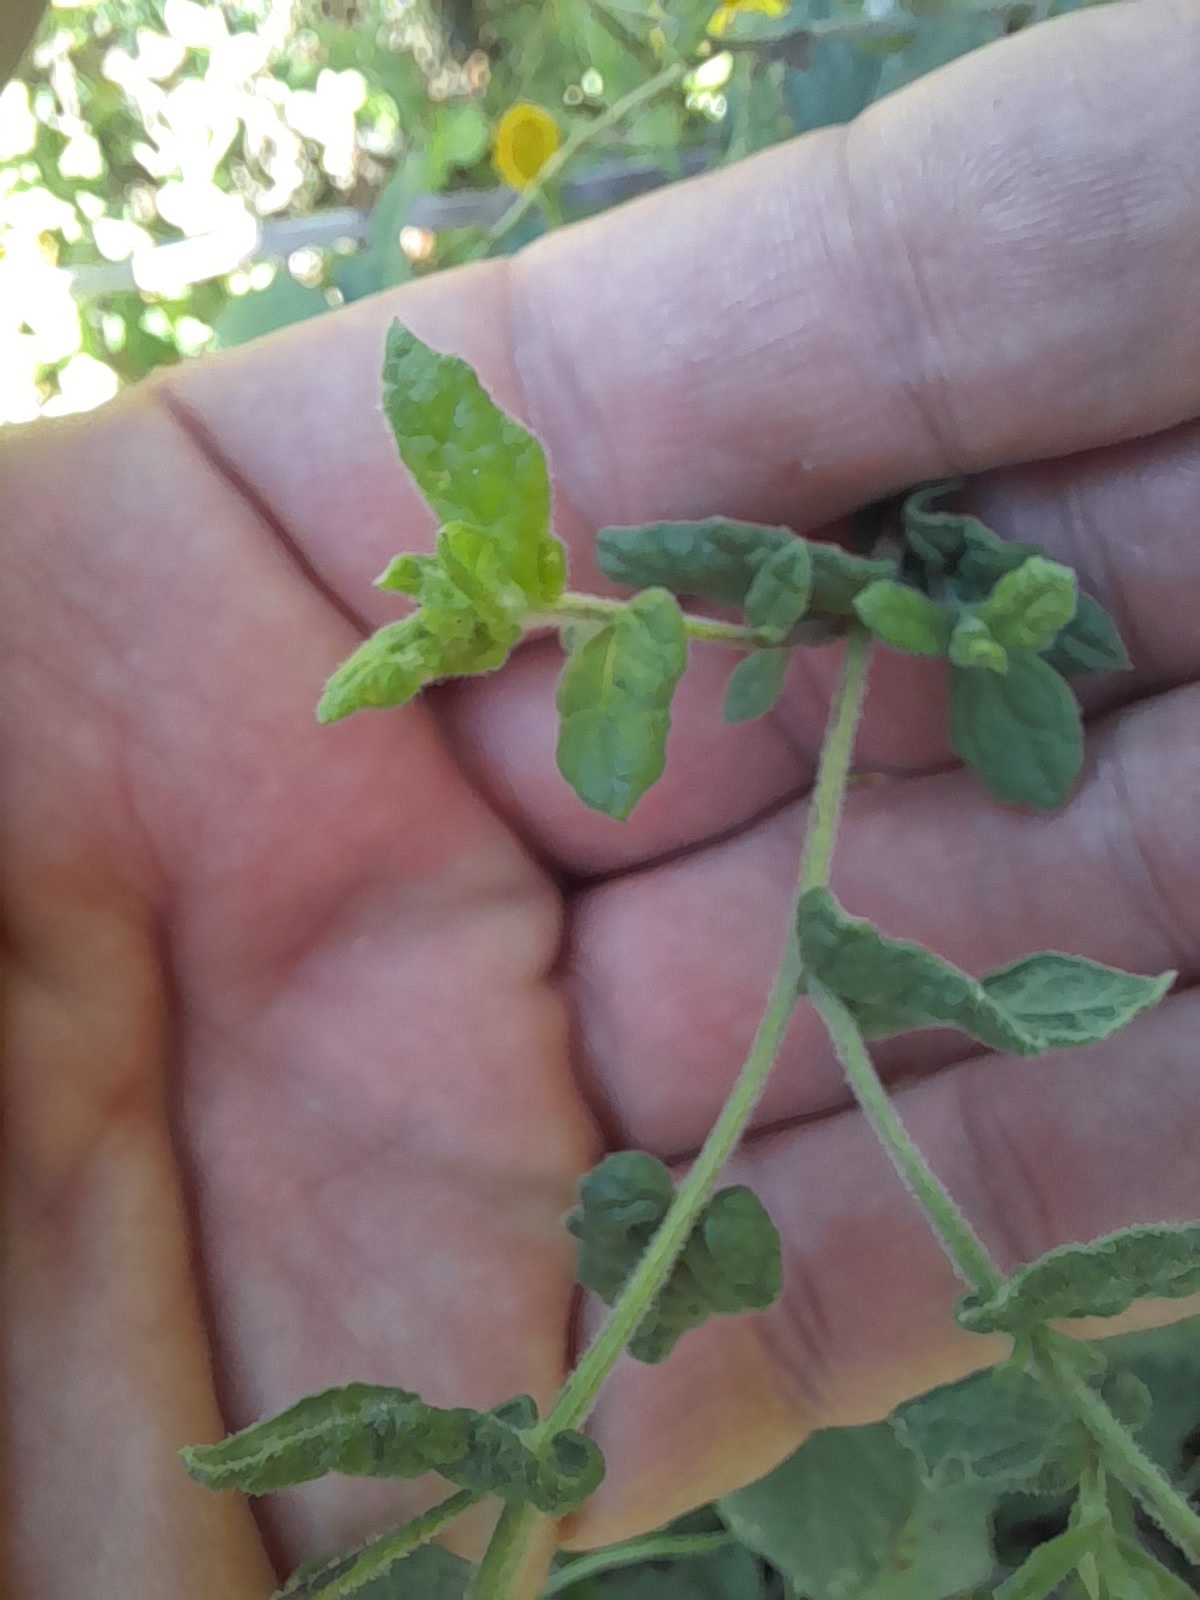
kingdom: Plantae
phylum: Tracheophyta
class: Magnoliopsida
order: Asterales
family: Asteraceae
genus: Pulicaria
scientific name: Pulicaria dysenterica
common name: Common fleabane
